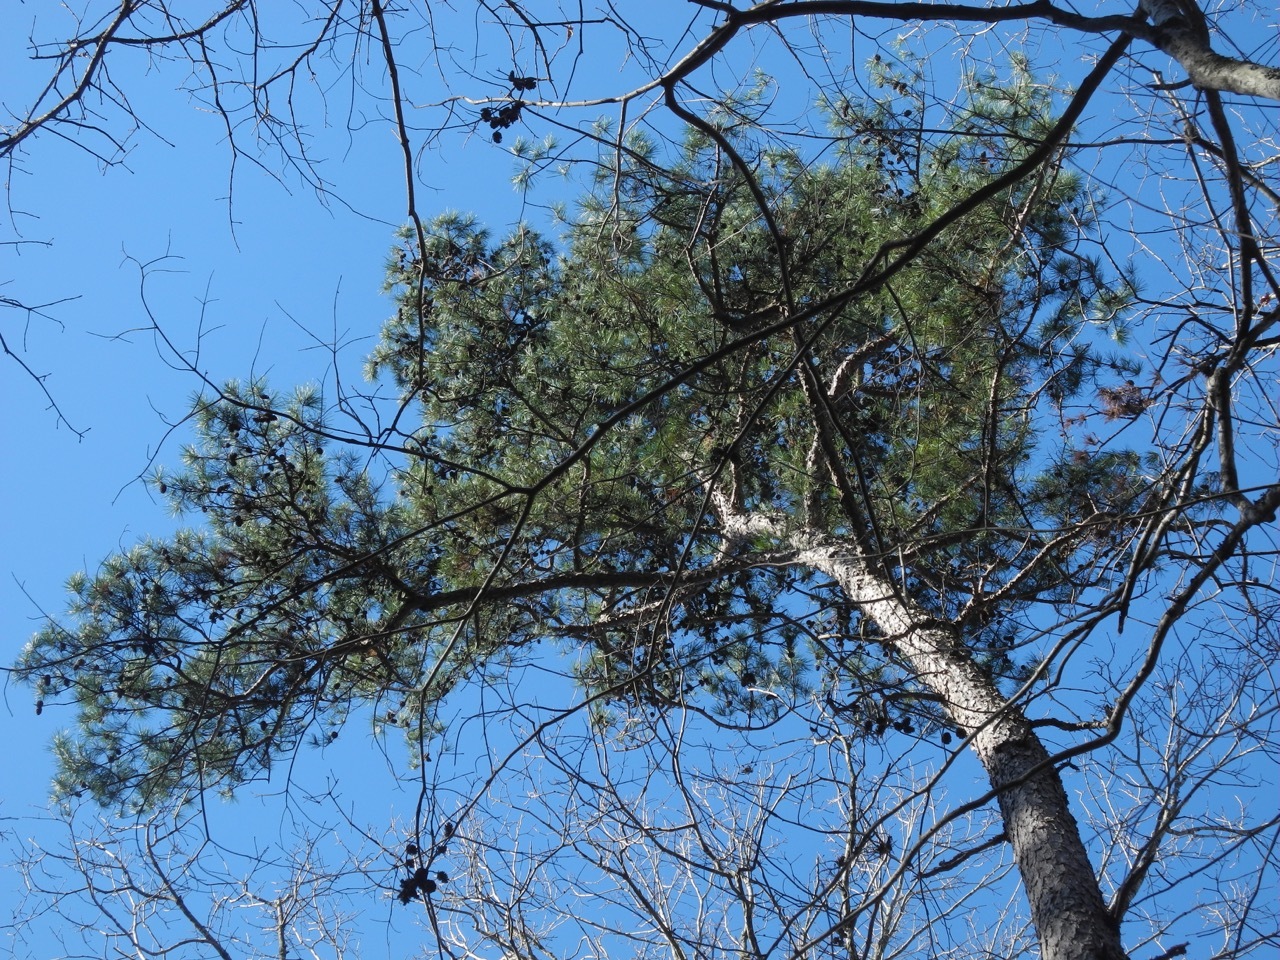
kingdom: Plantae
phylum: Tracheophyta
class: Pinopsida
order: Pinales
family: Pinaceae
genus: Pinus
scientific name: Pinus echinata
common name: Shortleaf pine
